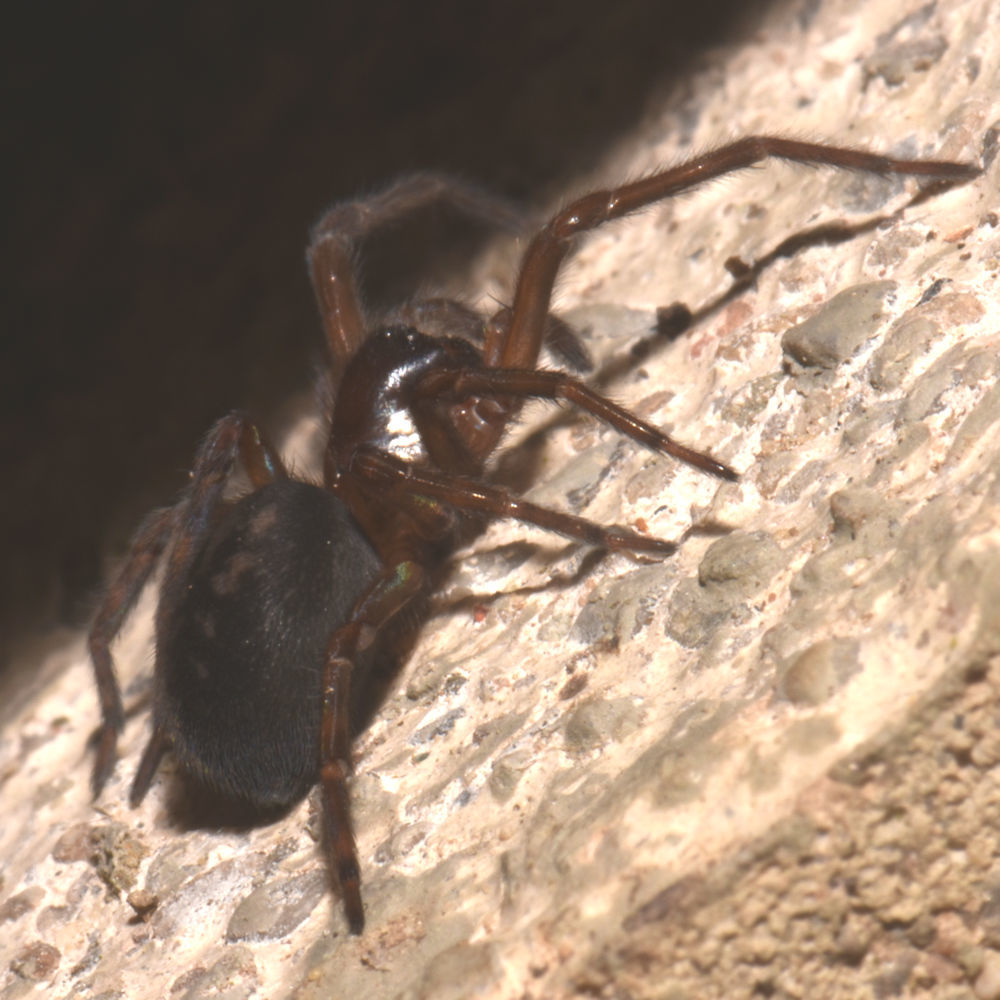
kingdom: Animalia
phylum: Arthropoda
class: Arachnida
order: Araneae
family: Amaurobiidae
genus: Amaurobius
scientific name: Amaurobius ferox
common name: Black laceweaver
